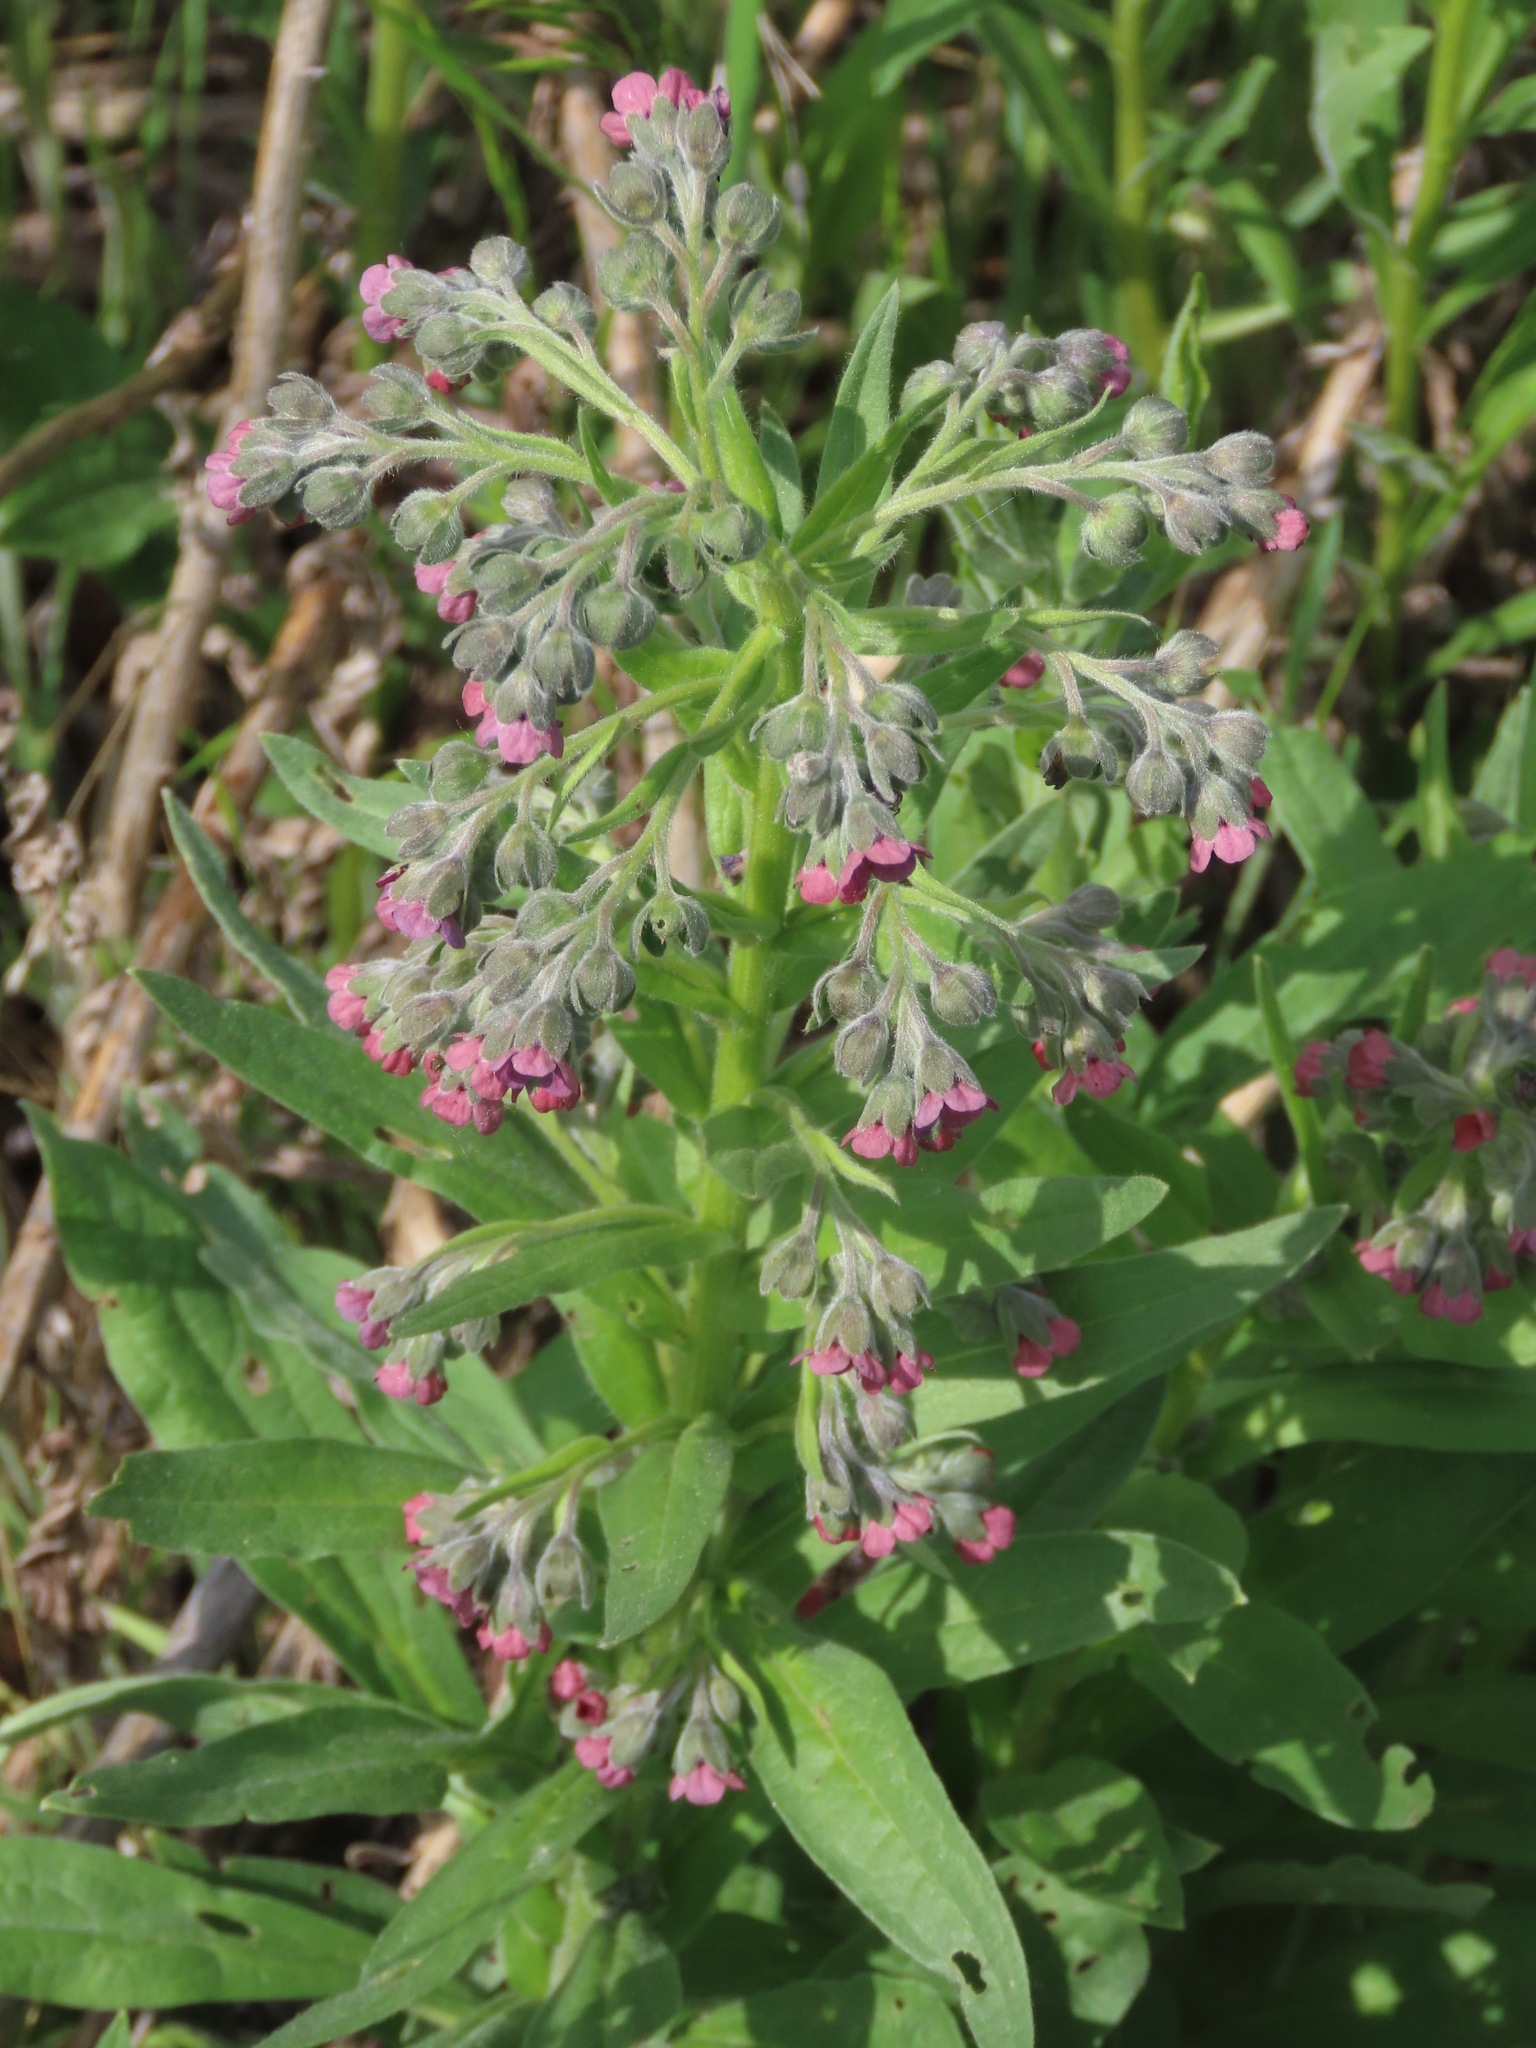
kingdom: Plantae
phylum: Tracheophyta
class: Magnoliopsida
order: Boraginales
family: Boraginaceae
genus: Cynoglossum
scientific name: Cynoglossum officinale
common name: Hound's-tongue
